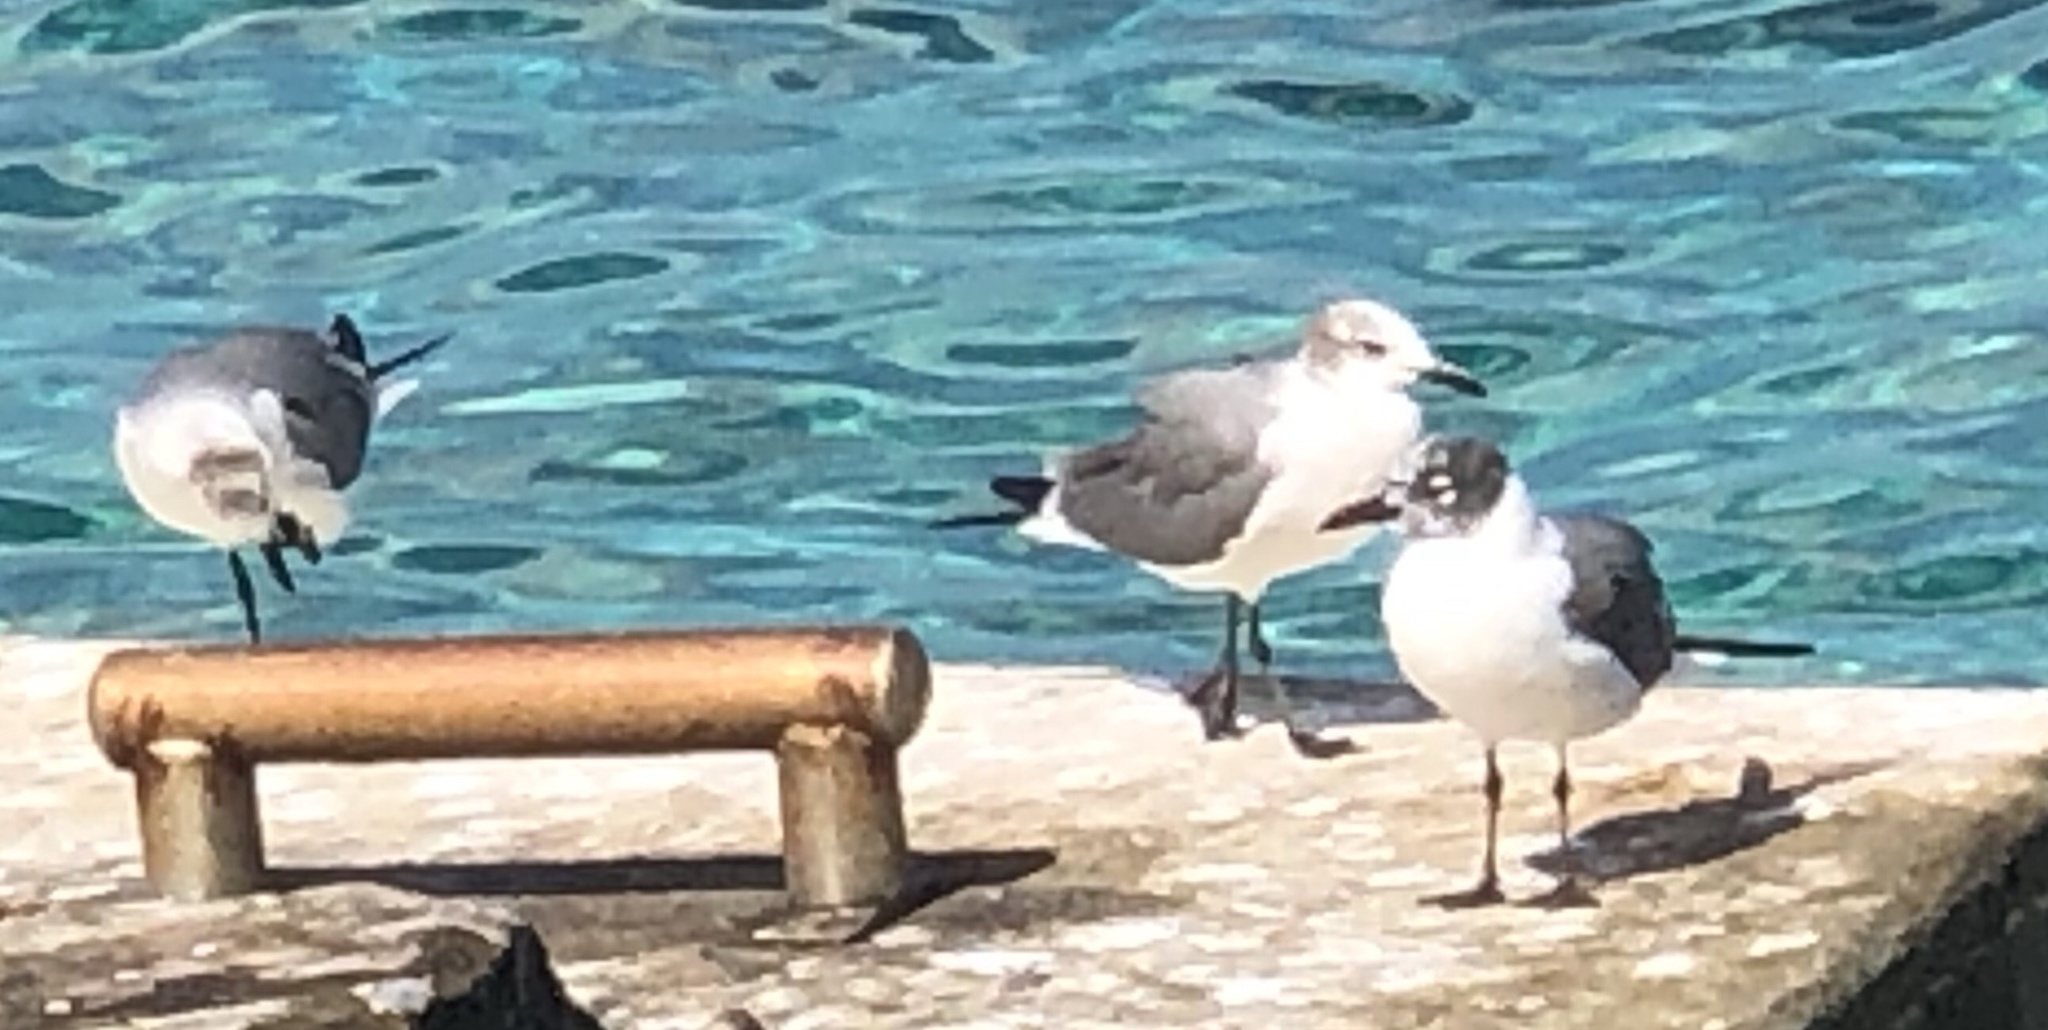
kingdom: Animalia
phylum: Chordata
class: Aves
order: Charadriiformes
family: Laridae
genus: Leucophaeus
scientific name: Leucophaeus atricilla
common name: Laughing gull
